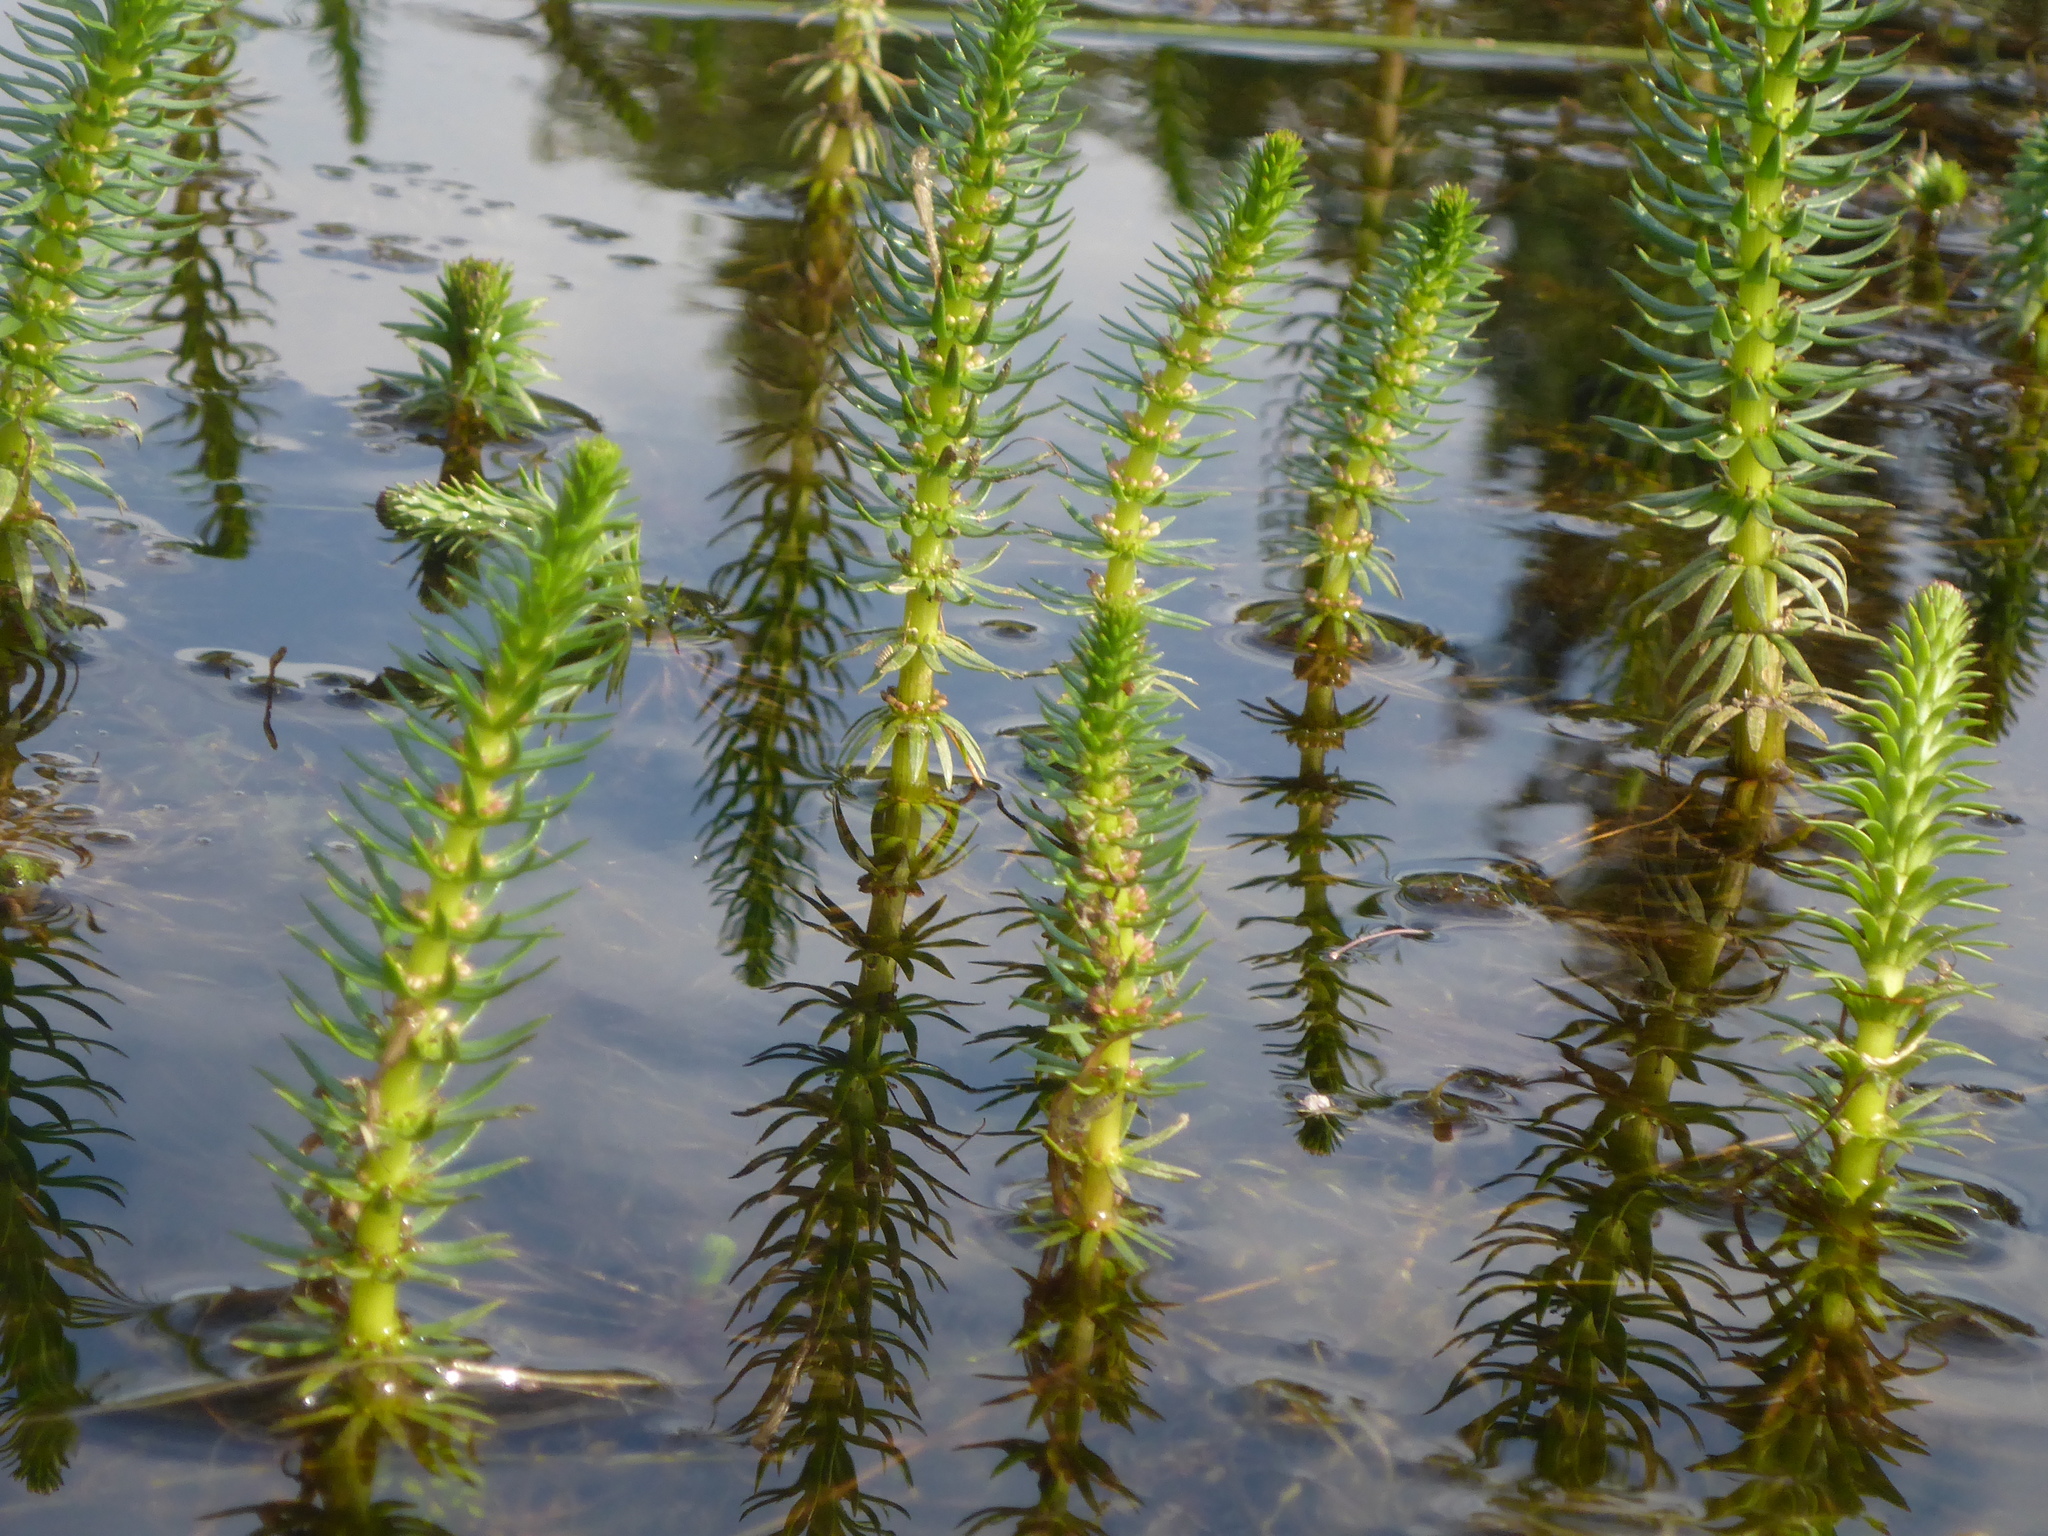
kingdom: Plantae
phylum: Tracheophyta
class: Magnoliopsida
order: Lamiales
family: Plantaginaceae
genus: Hippuris
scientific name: Hippuris vulgaris
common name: Mare's-tail
